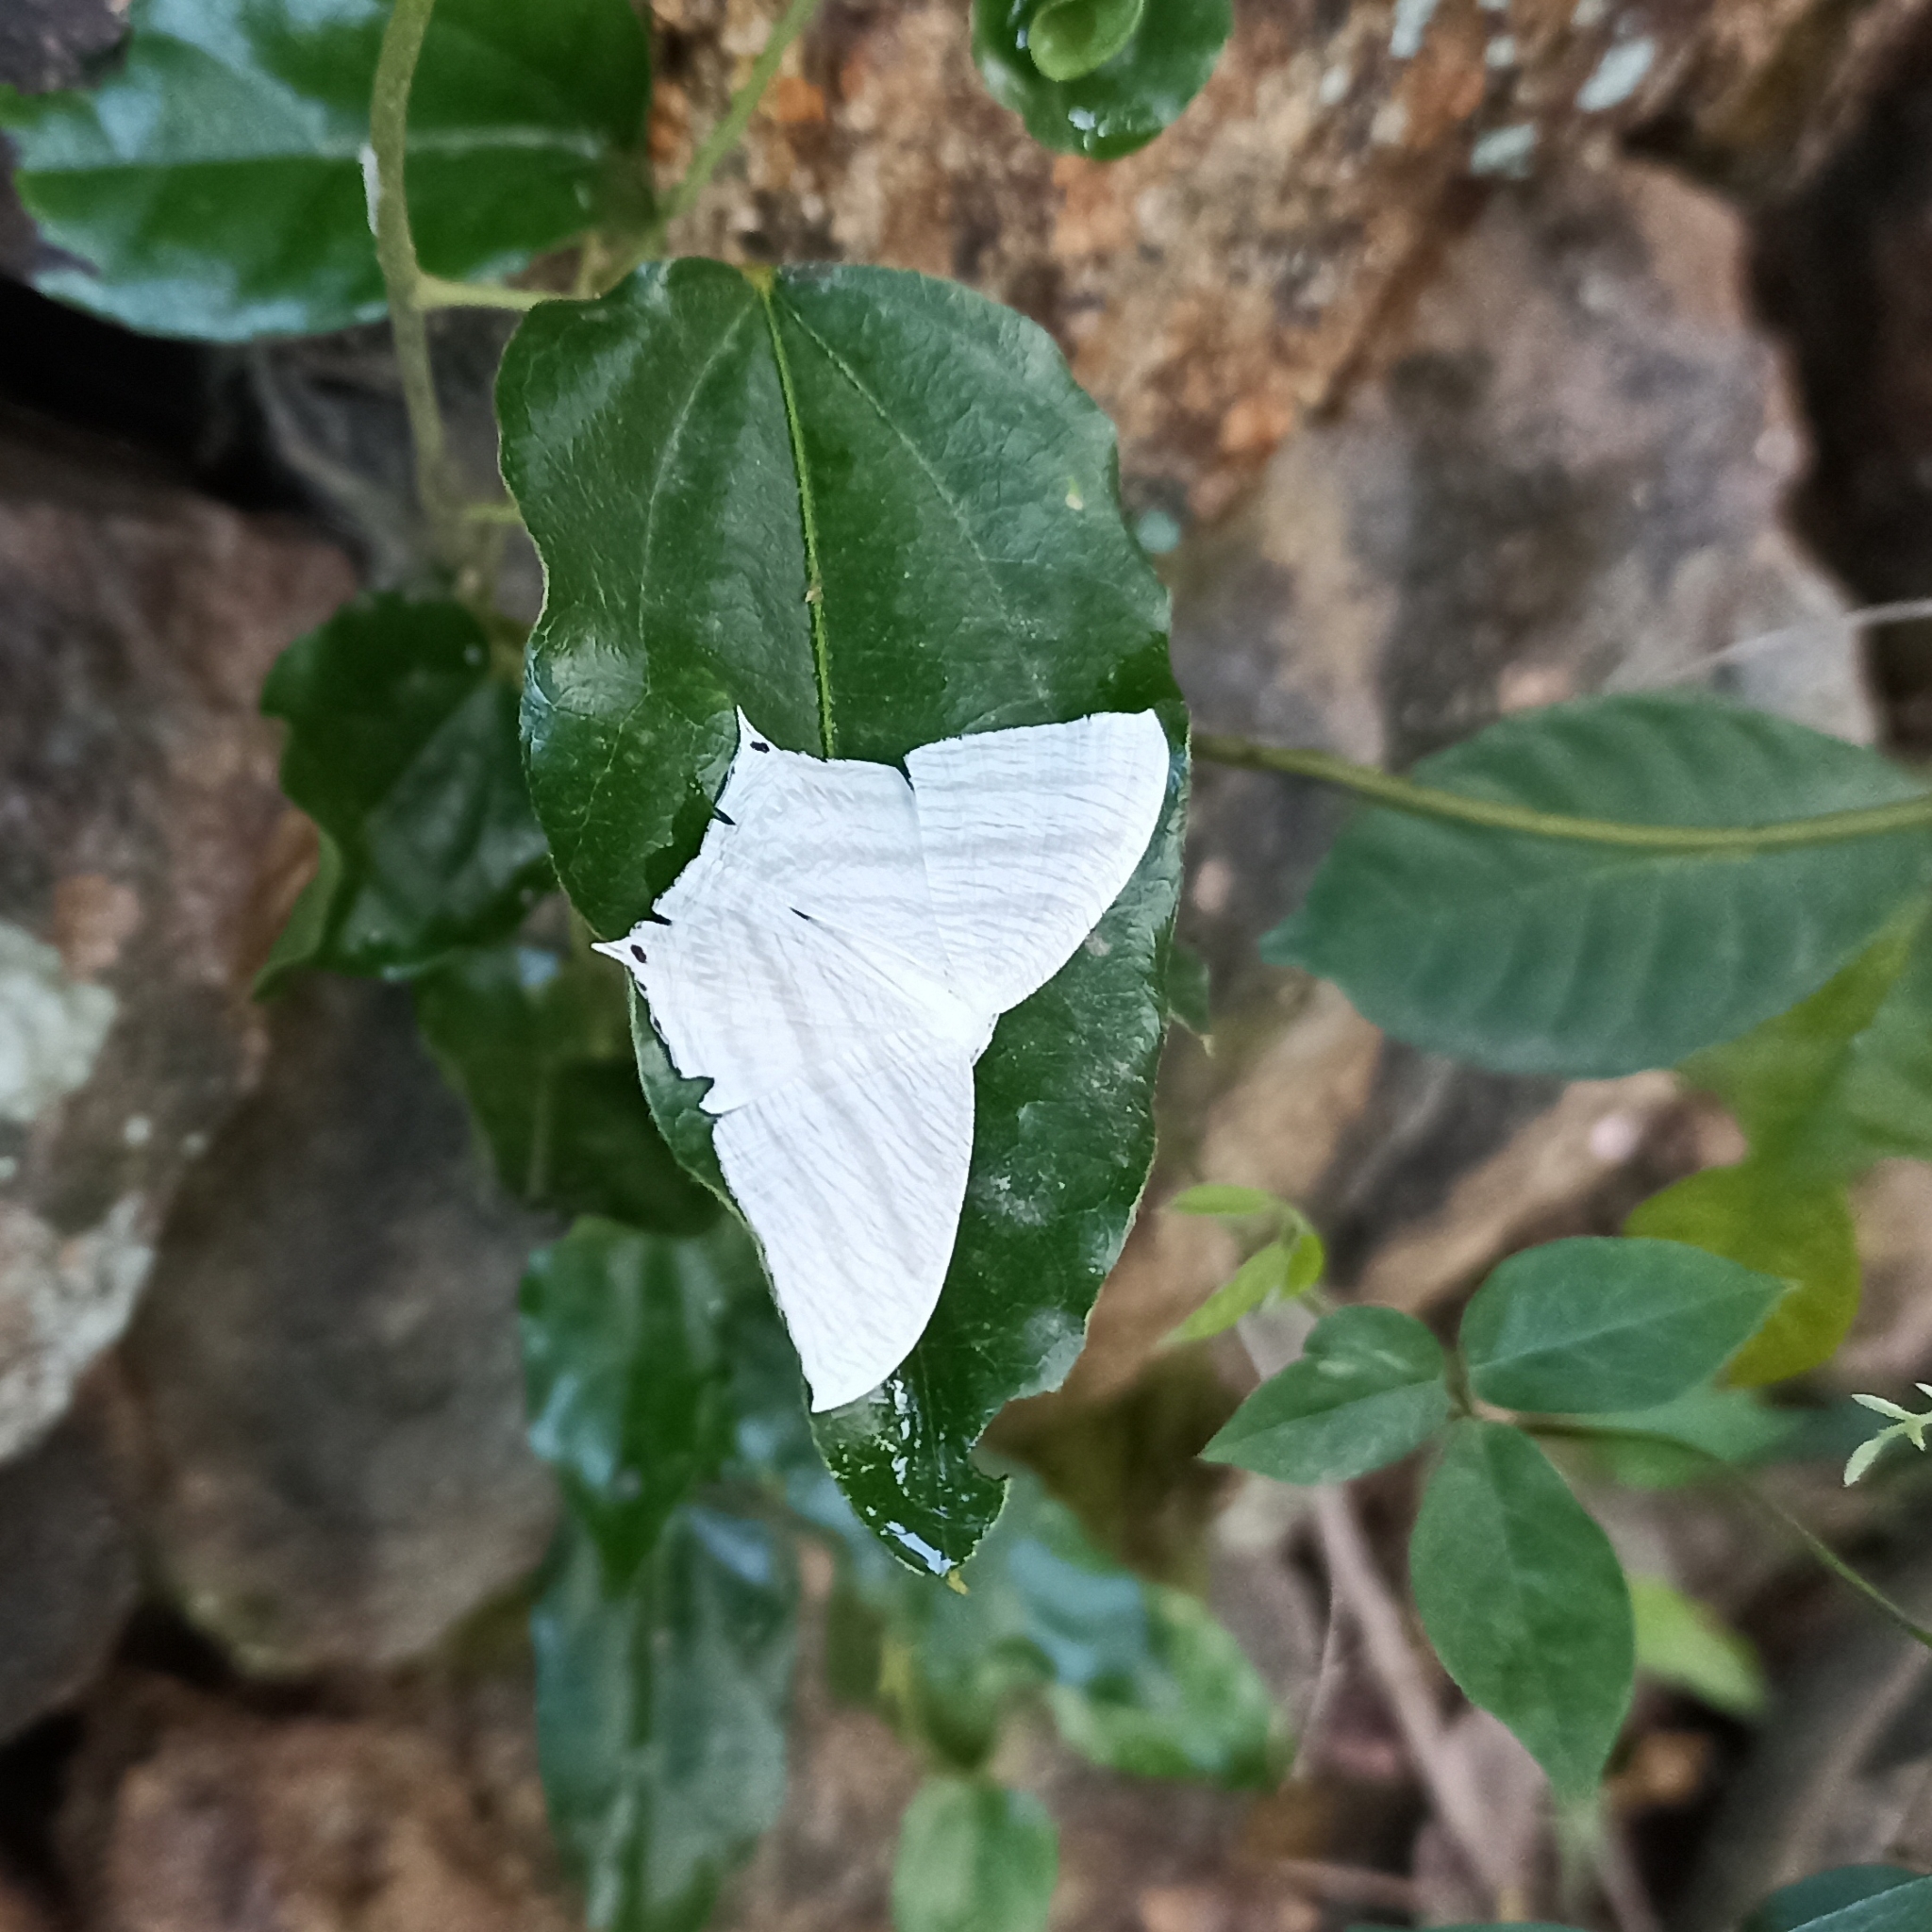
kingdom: Animalia
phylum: Arthropoda
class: Insecta
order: Lepidoptera
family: Uraniidae
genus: Micronia
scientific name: Micronia aculeata
